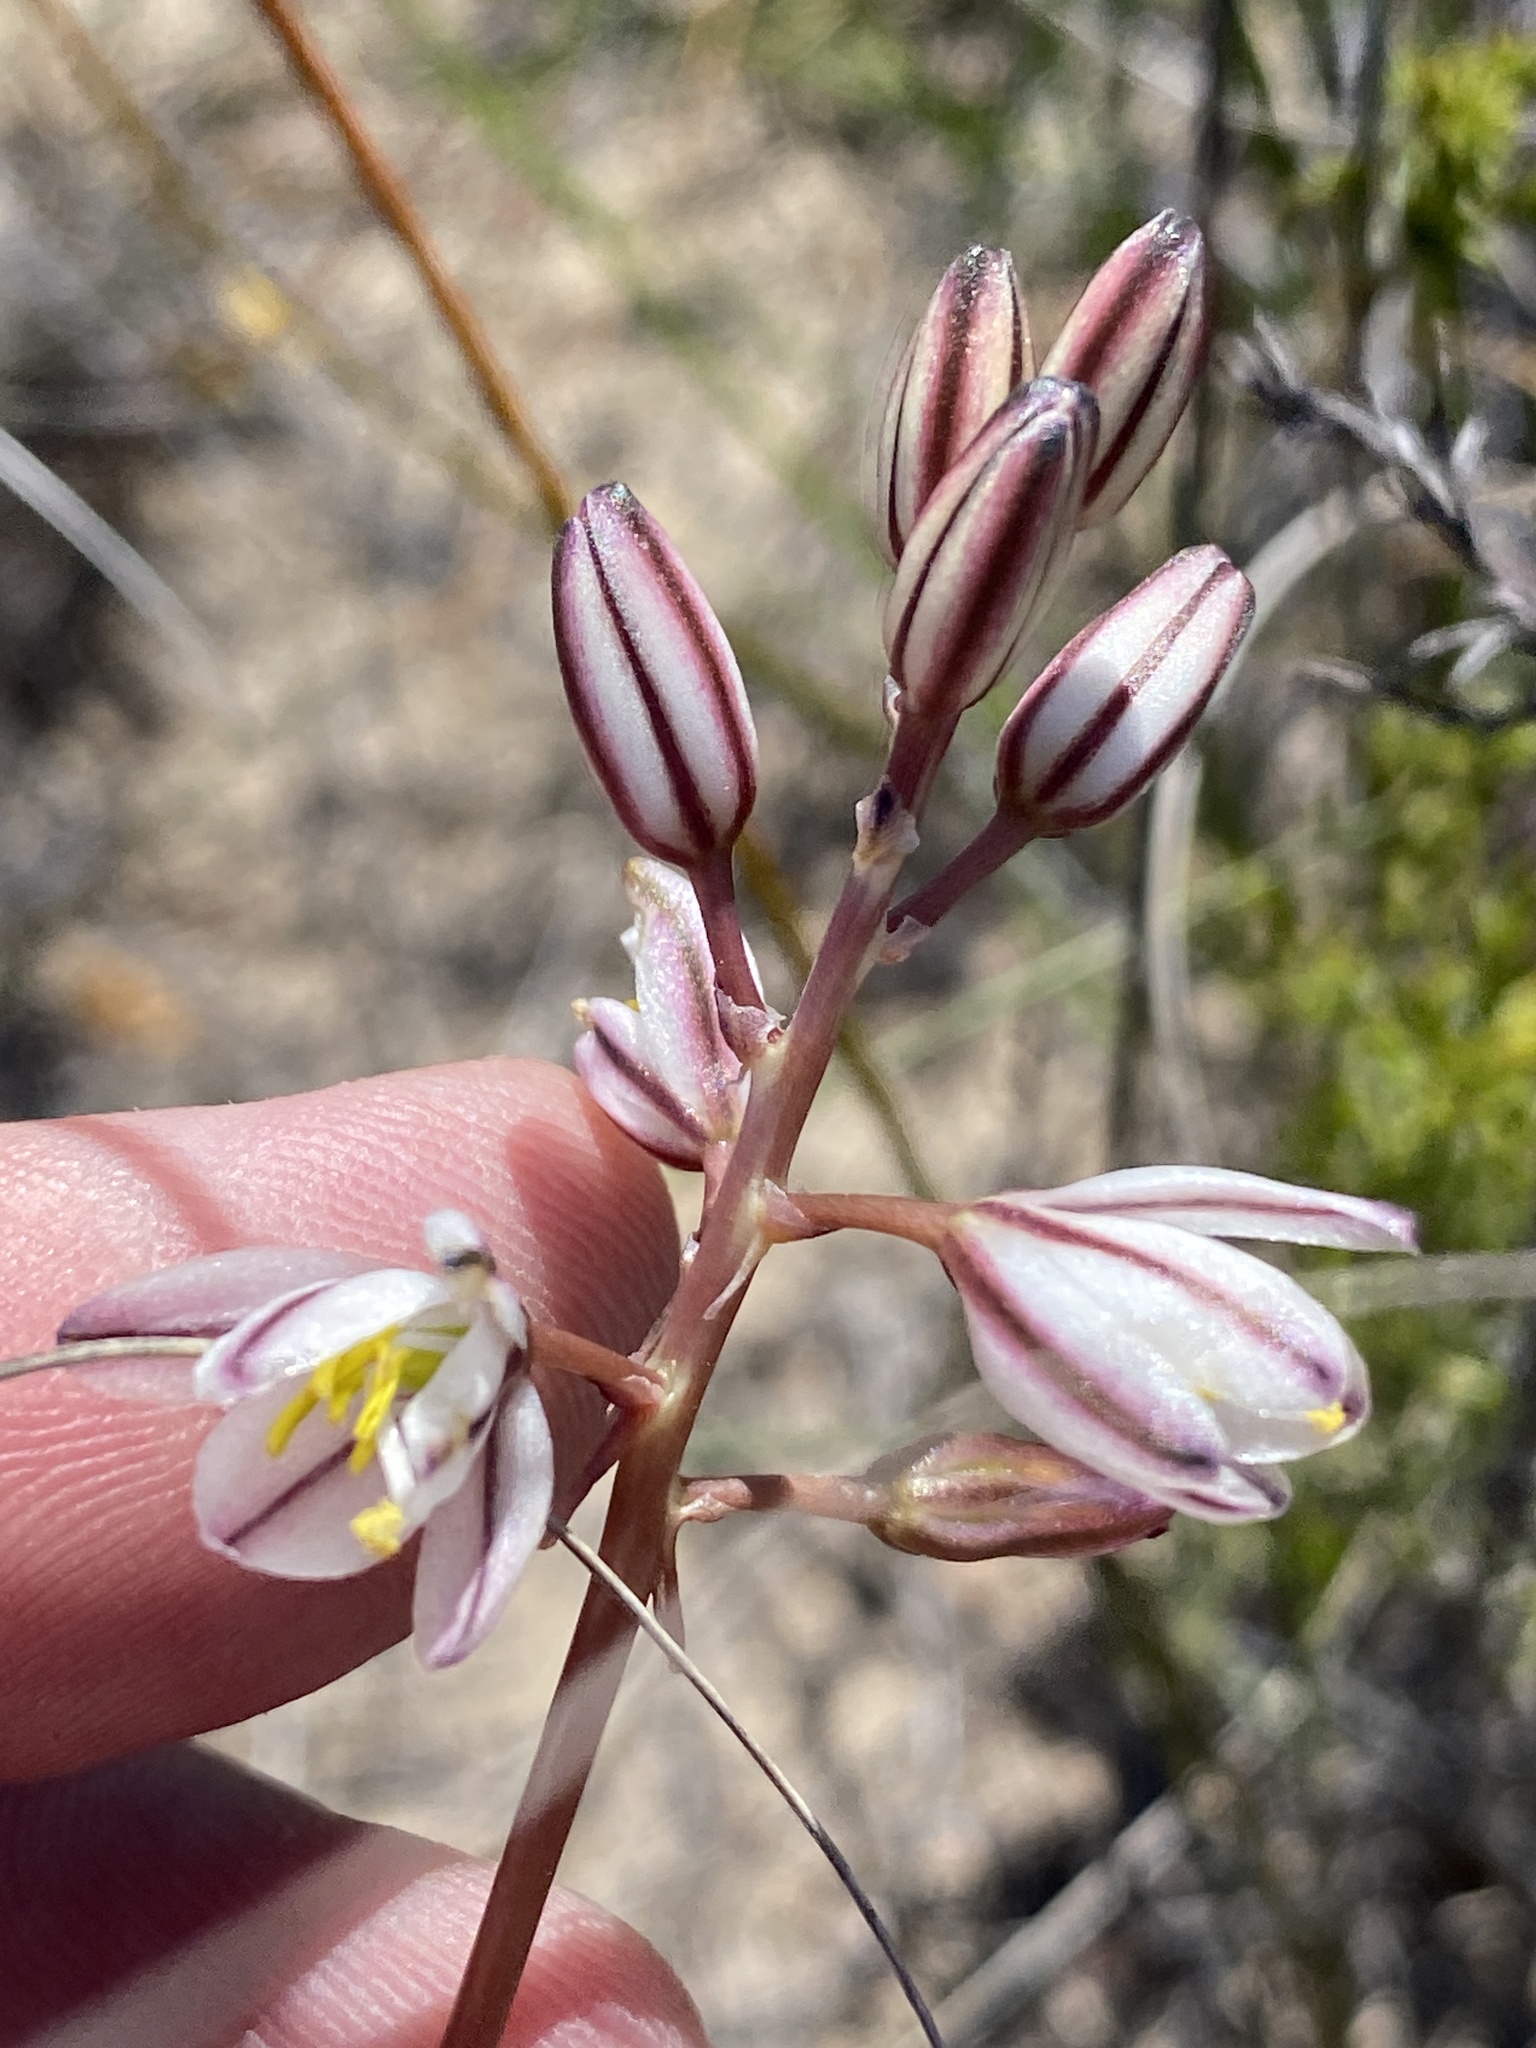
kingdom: Plantae
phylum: Tracheophyta
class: Liliopsida
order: Asparagales
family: Asparagaceae
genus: Drimia
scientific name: Drimia exuviata
